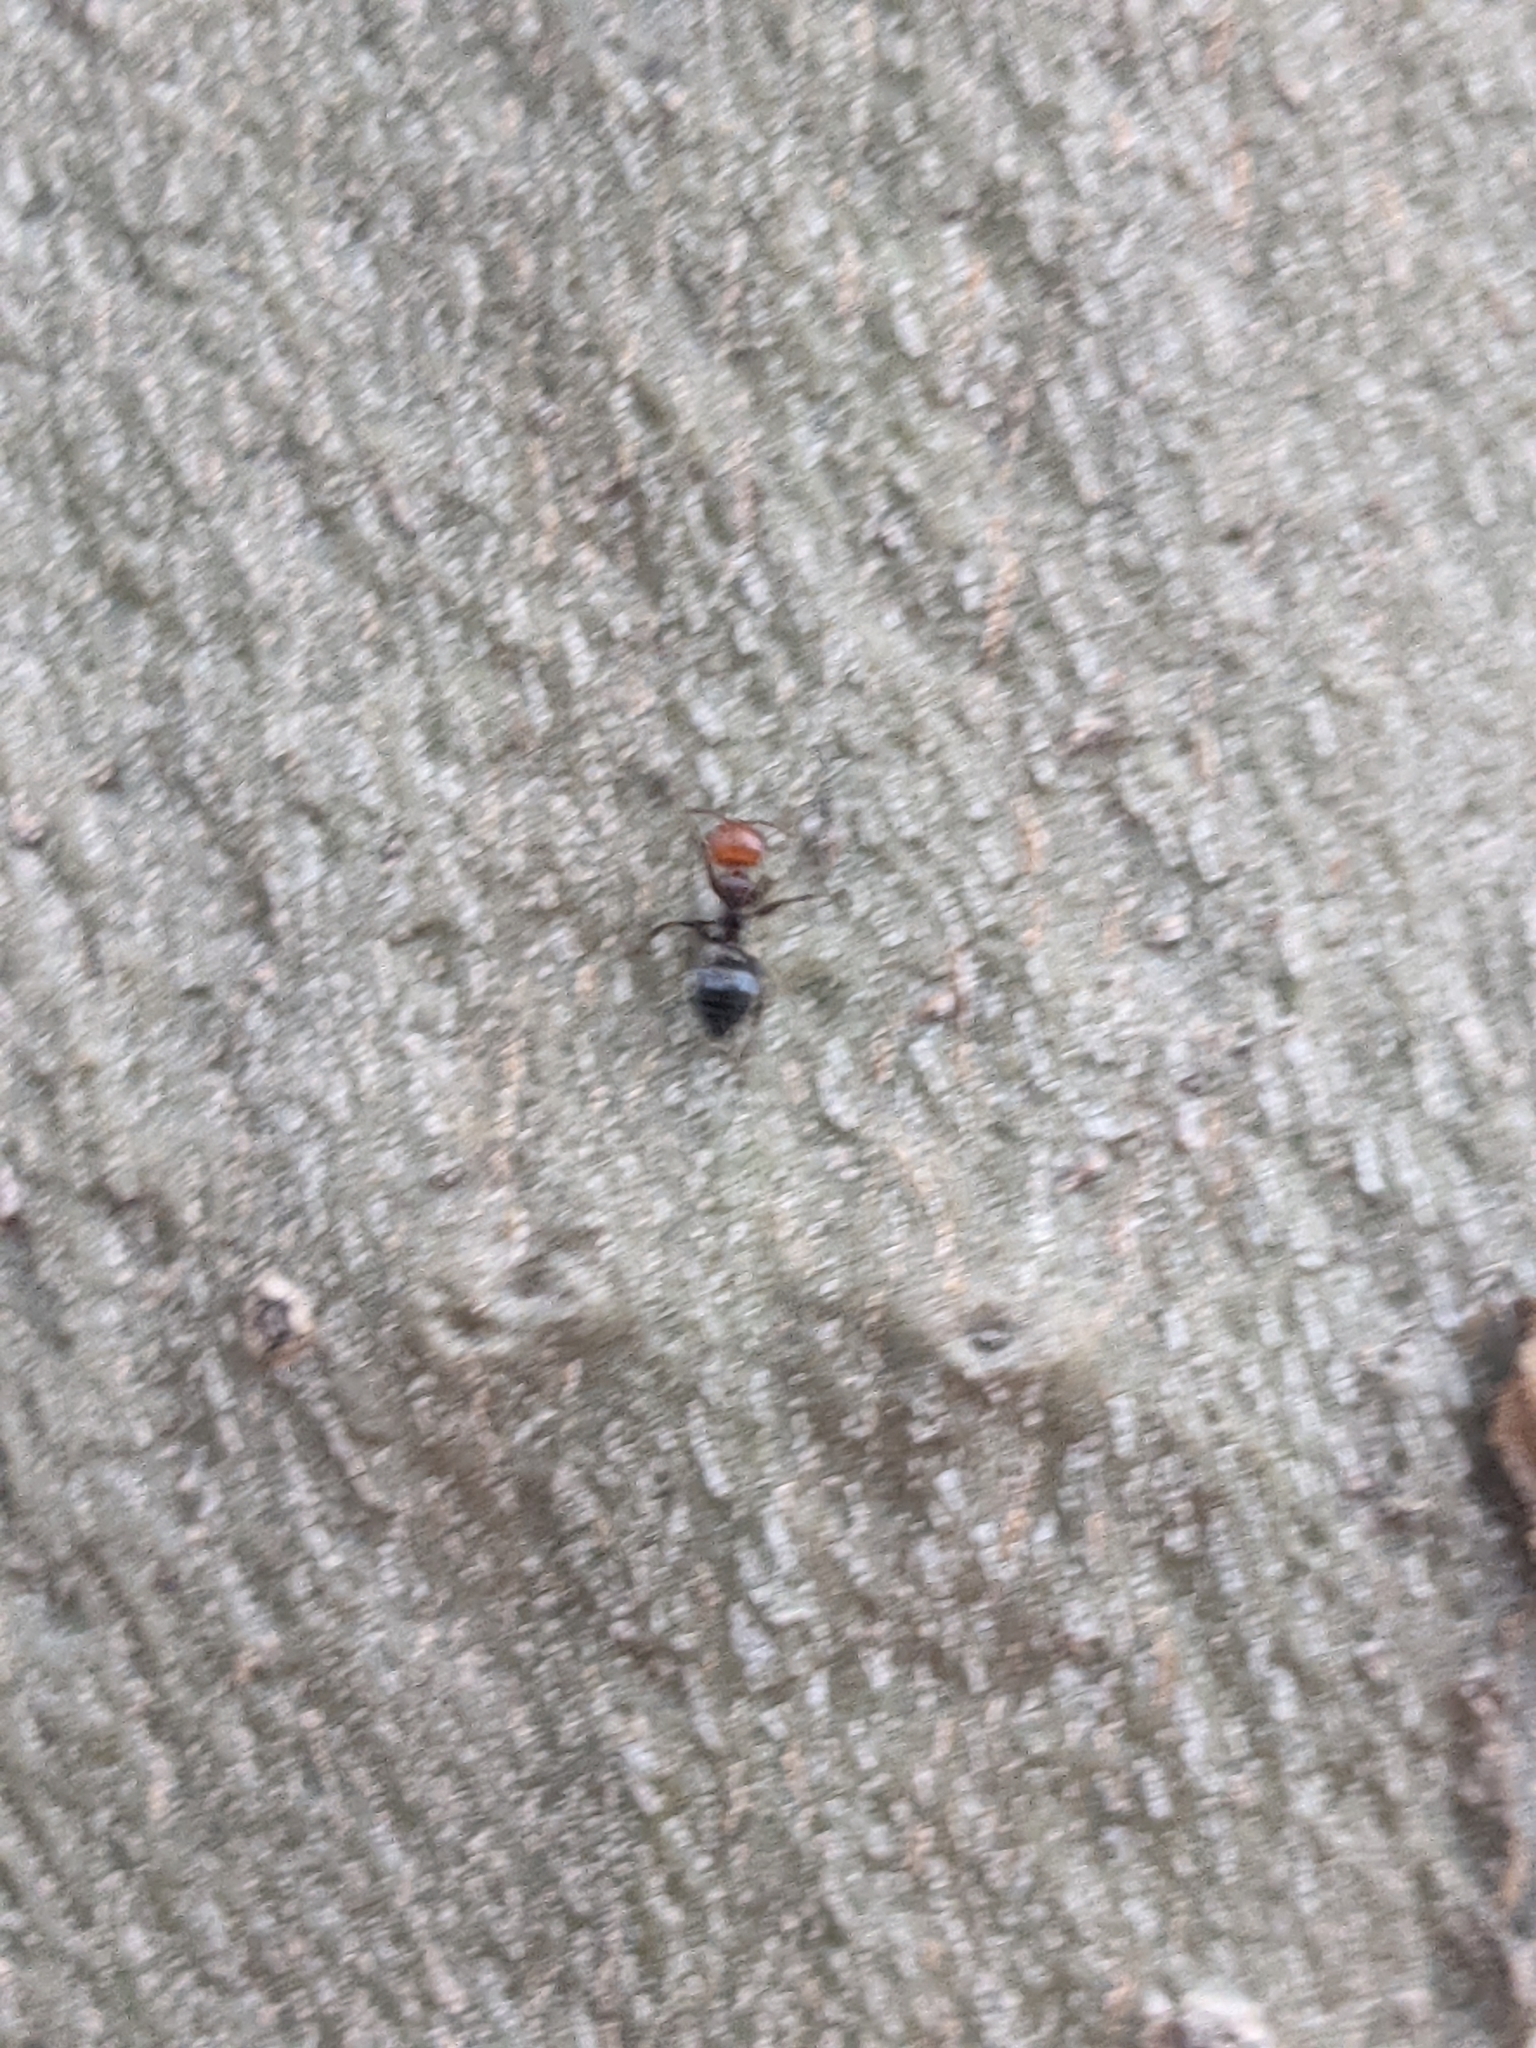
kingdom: Animalia
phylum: Arthropoda
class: Insecta
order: Hymenoptera
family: Formicidae
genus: Crematogaster
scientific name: Crematogaster scutellaris
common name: Fourmi du liège
